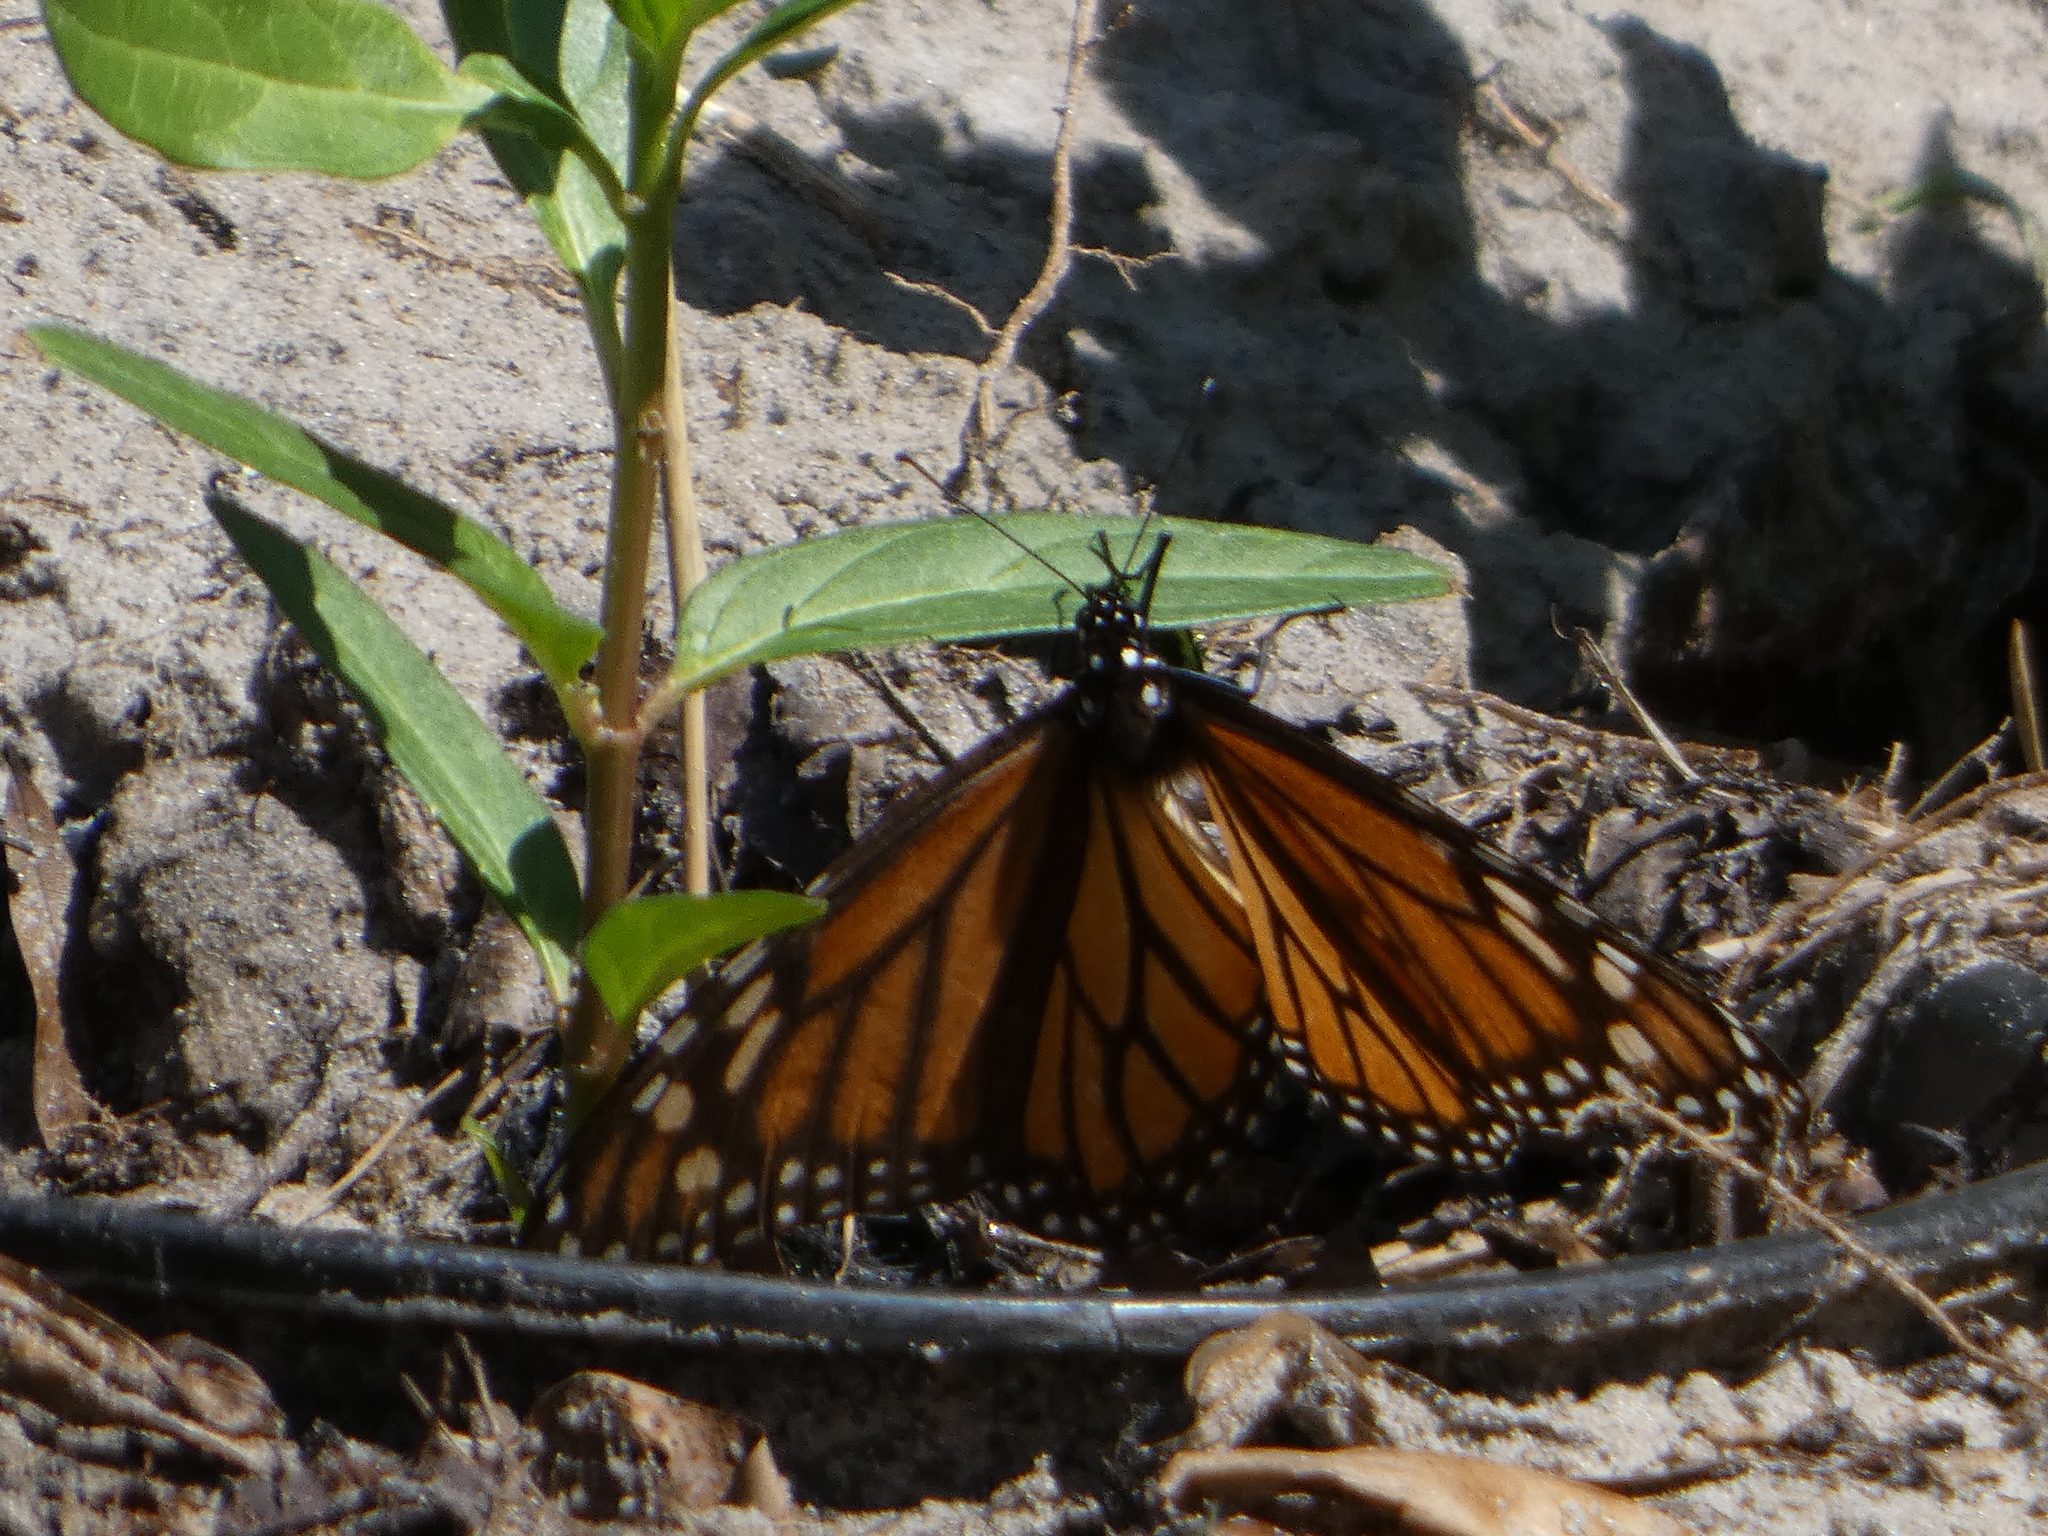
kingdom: Animalia
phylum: Arthropoda
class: Insecta
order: Lepidoptera
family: Nymphalidae
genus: Danaus
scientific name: Danaus plexippus
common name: Monarch
